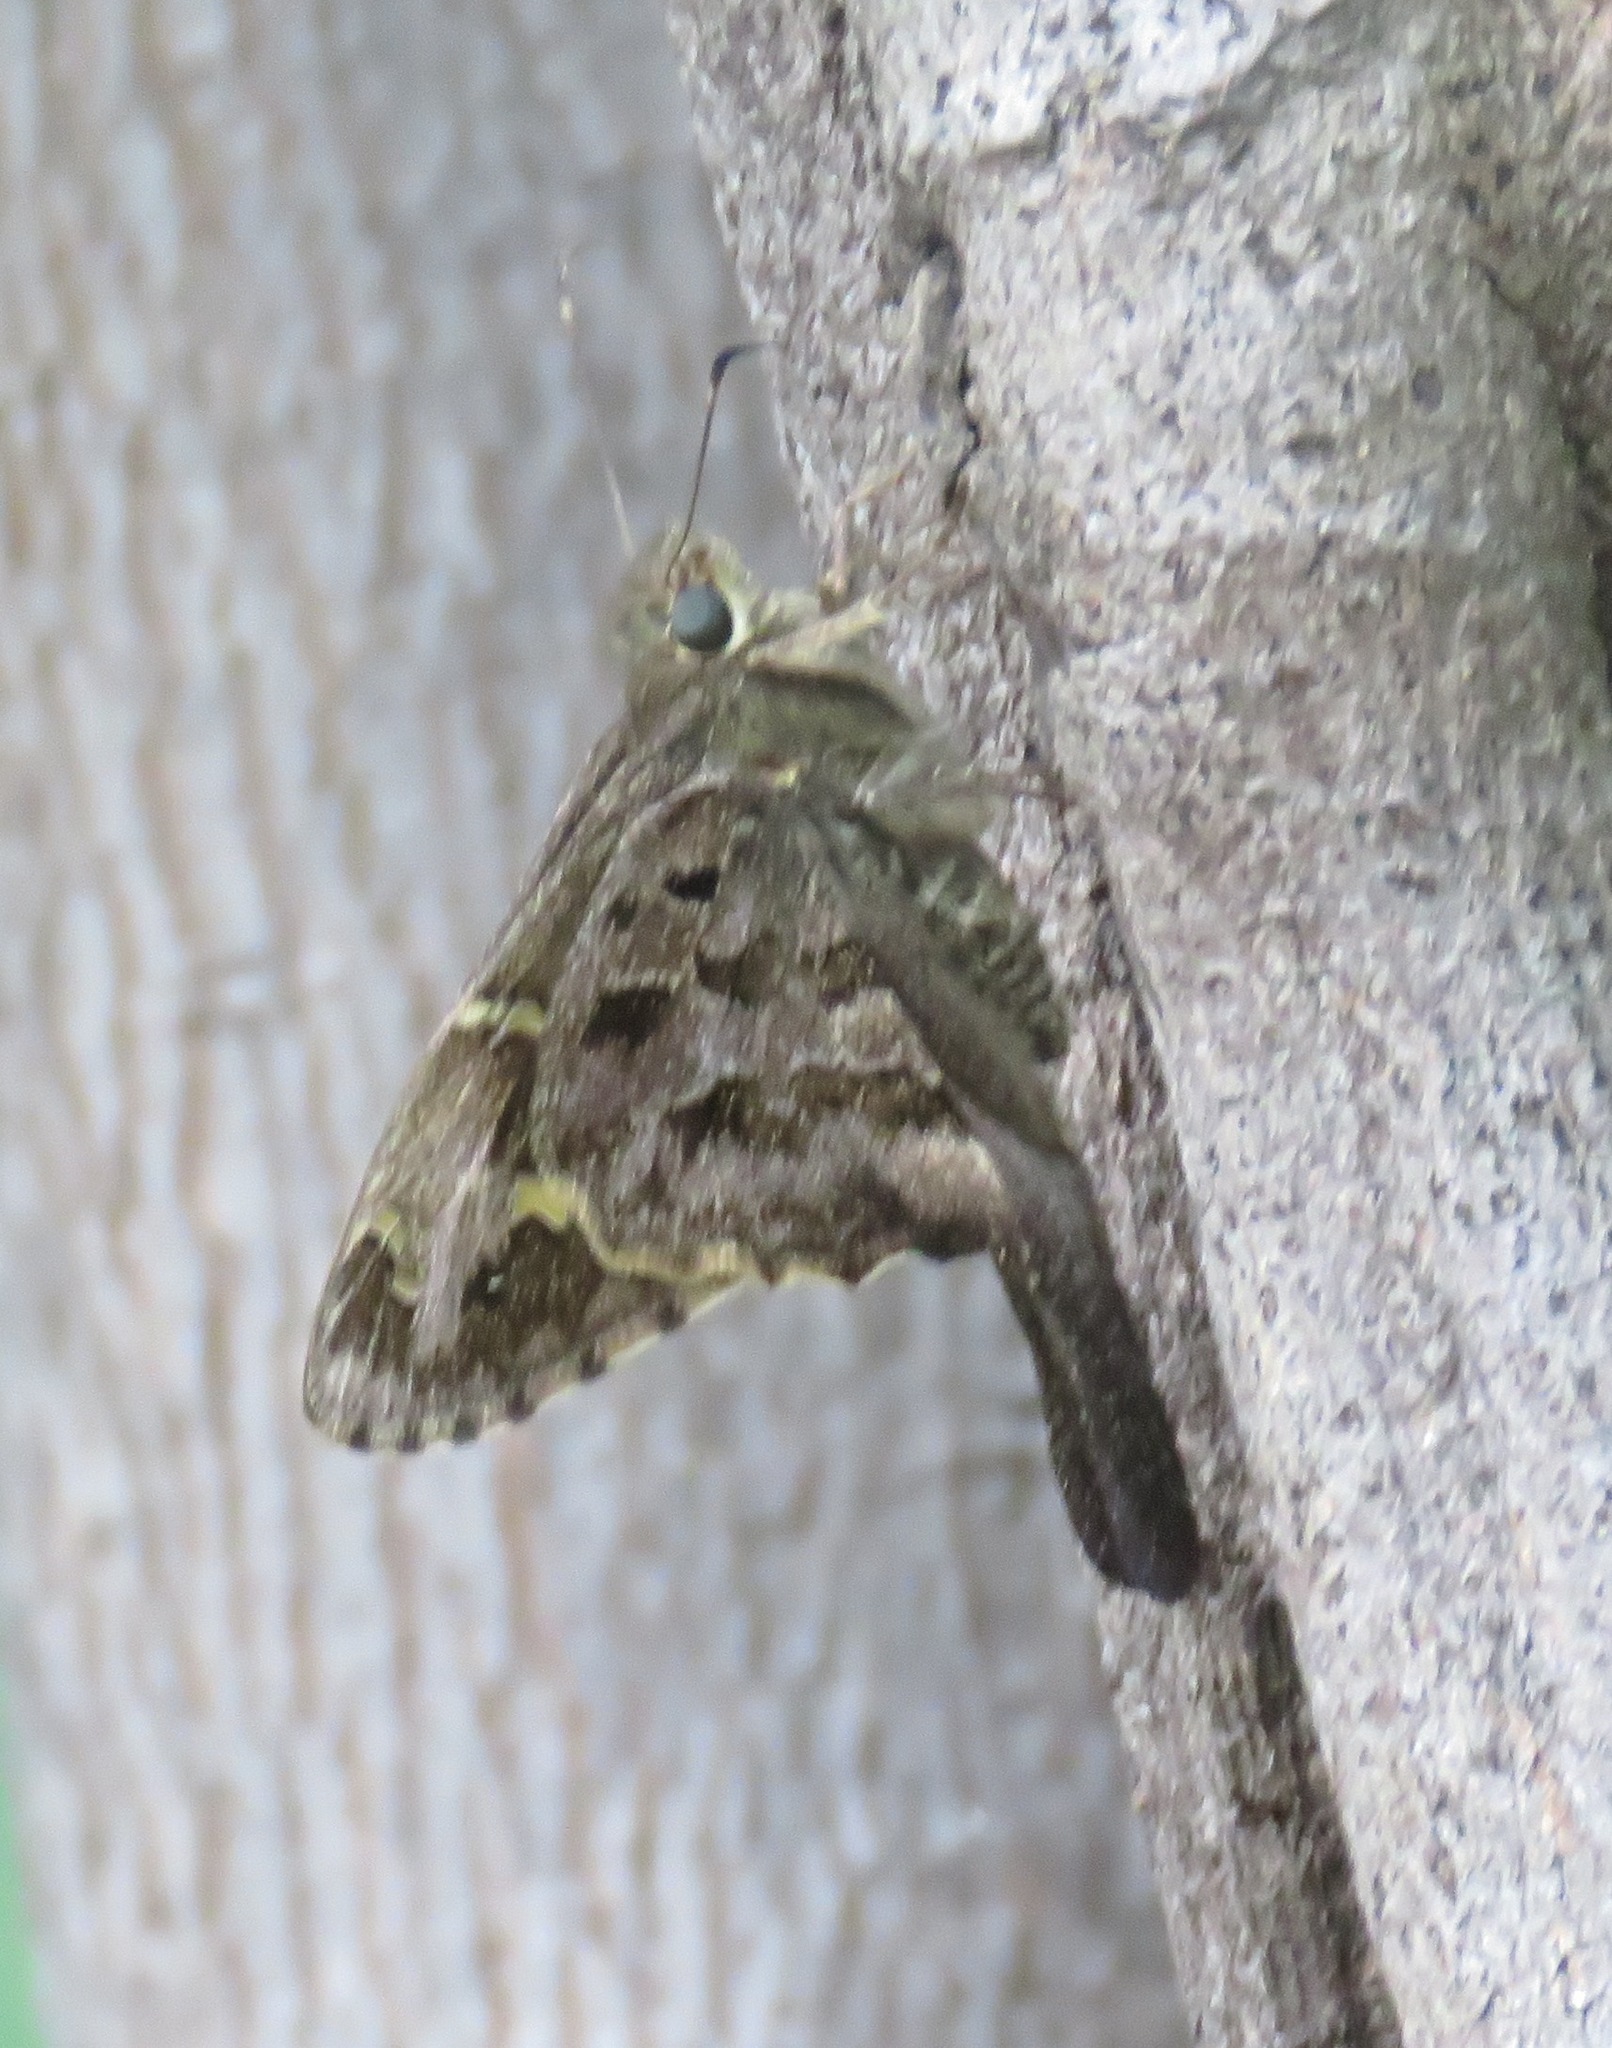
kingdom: Animalia
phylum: Arthropoda
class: Insecta
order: Lepidoptera
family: Hesperiidae
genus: Thorybes
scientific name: Thorybes
